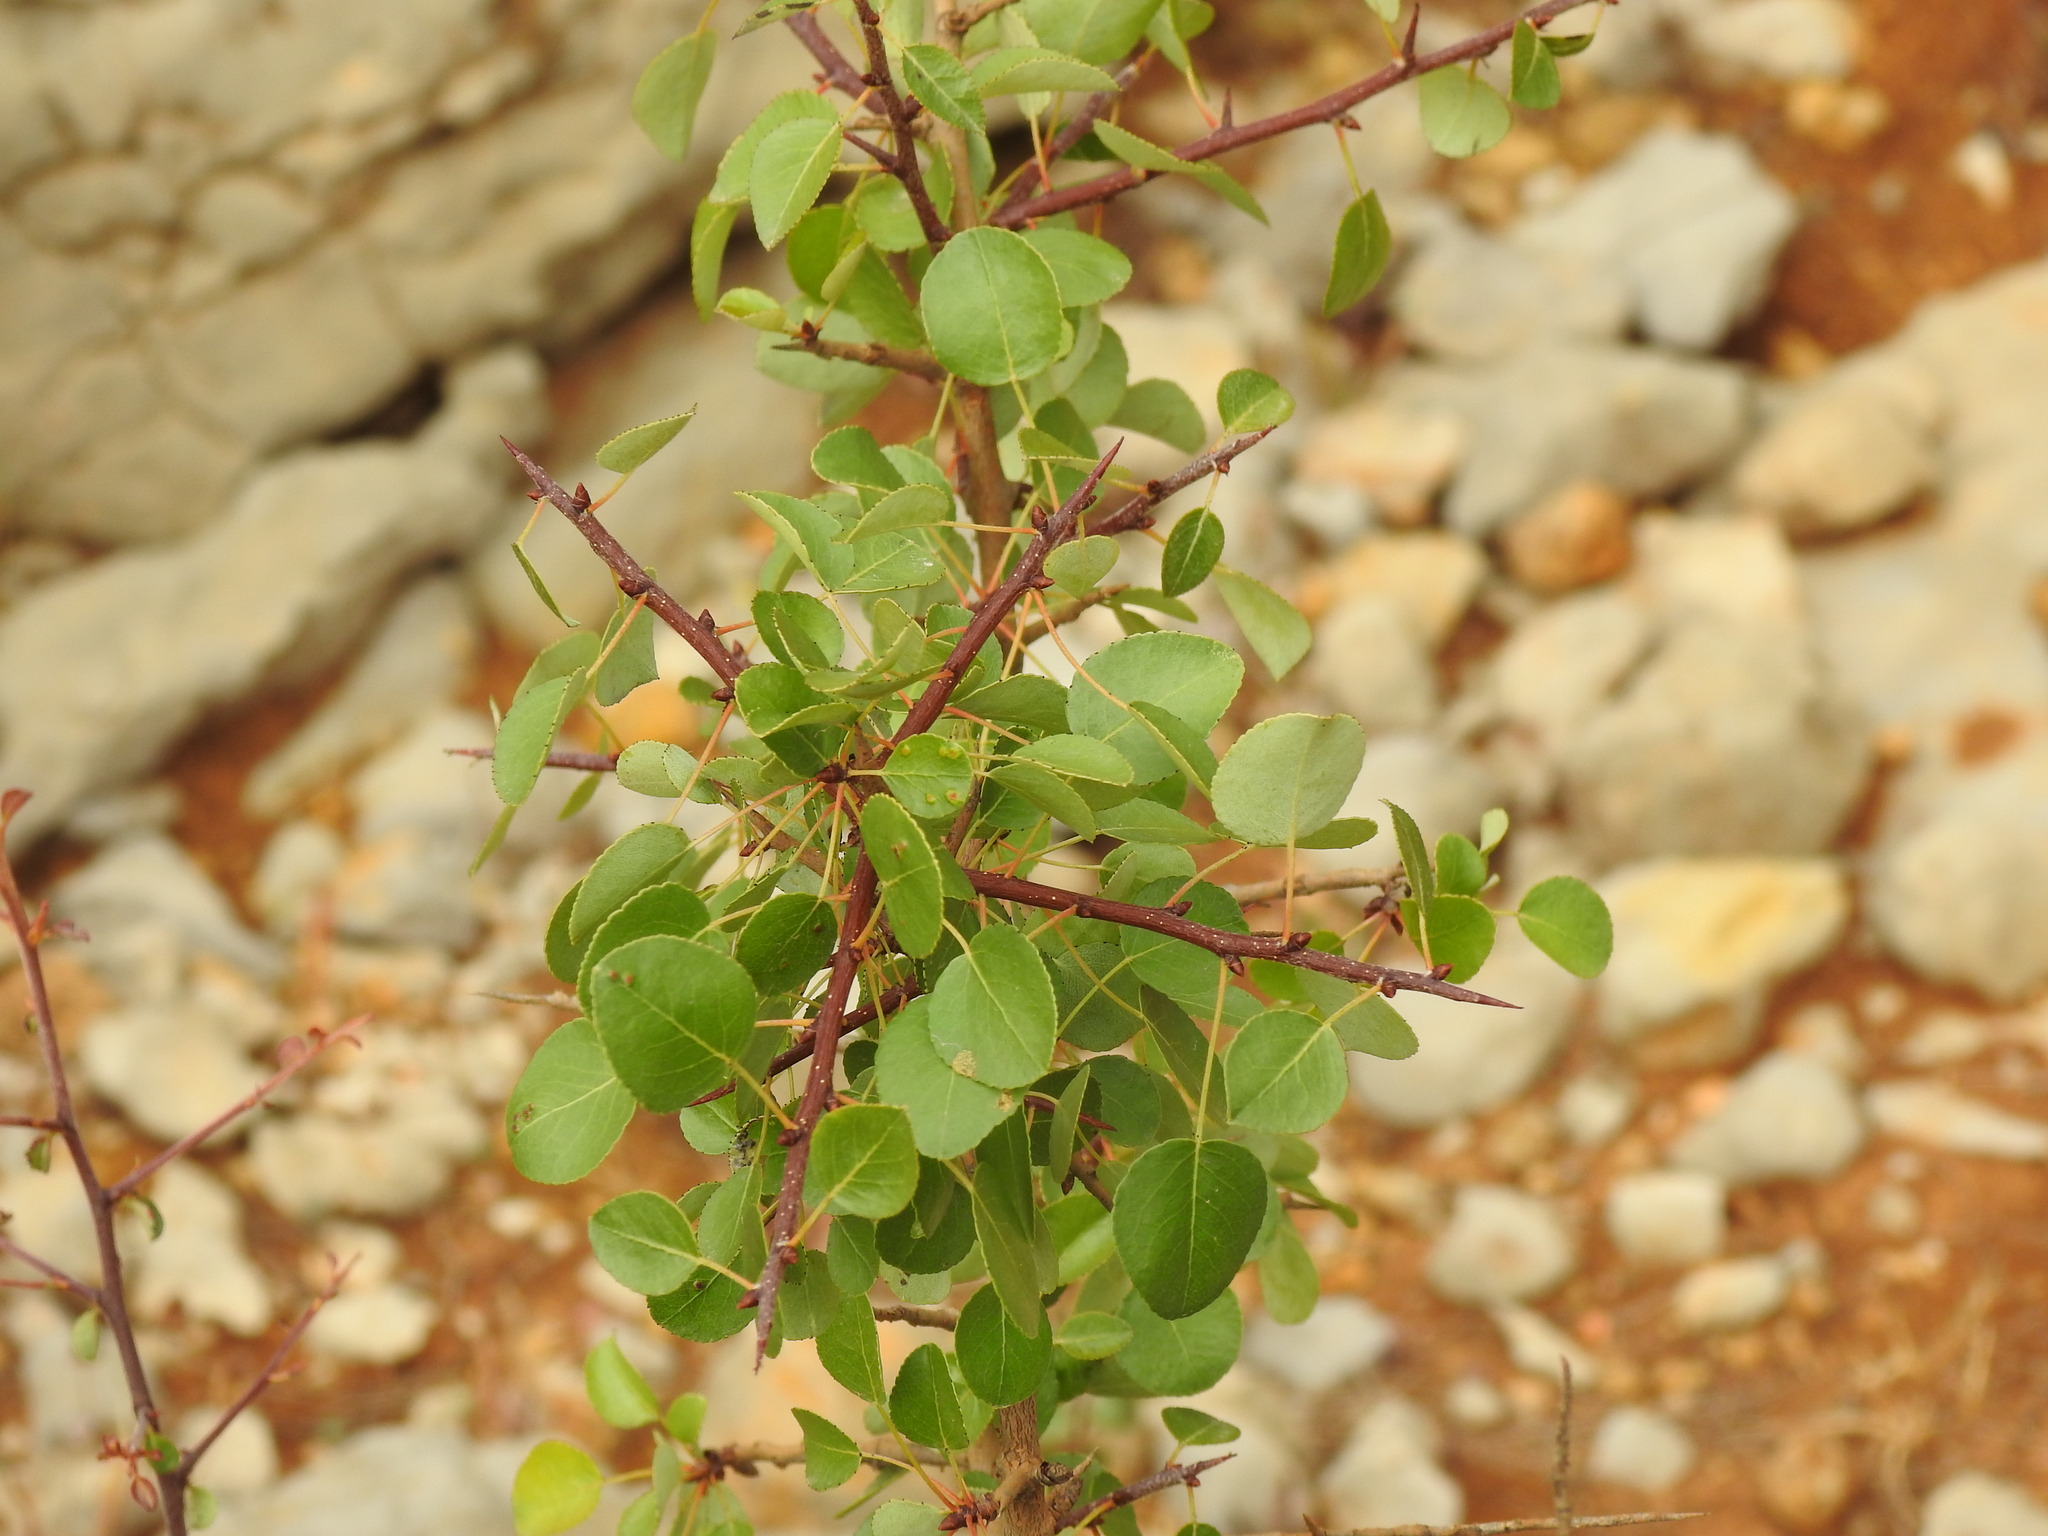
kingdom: Plantae
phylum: Tracheophyta
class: Magnoliopsida
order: Rosales
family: Rosaceae
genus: Pyrus
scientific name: Pyrus bourgaeana
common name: Iberian pear
